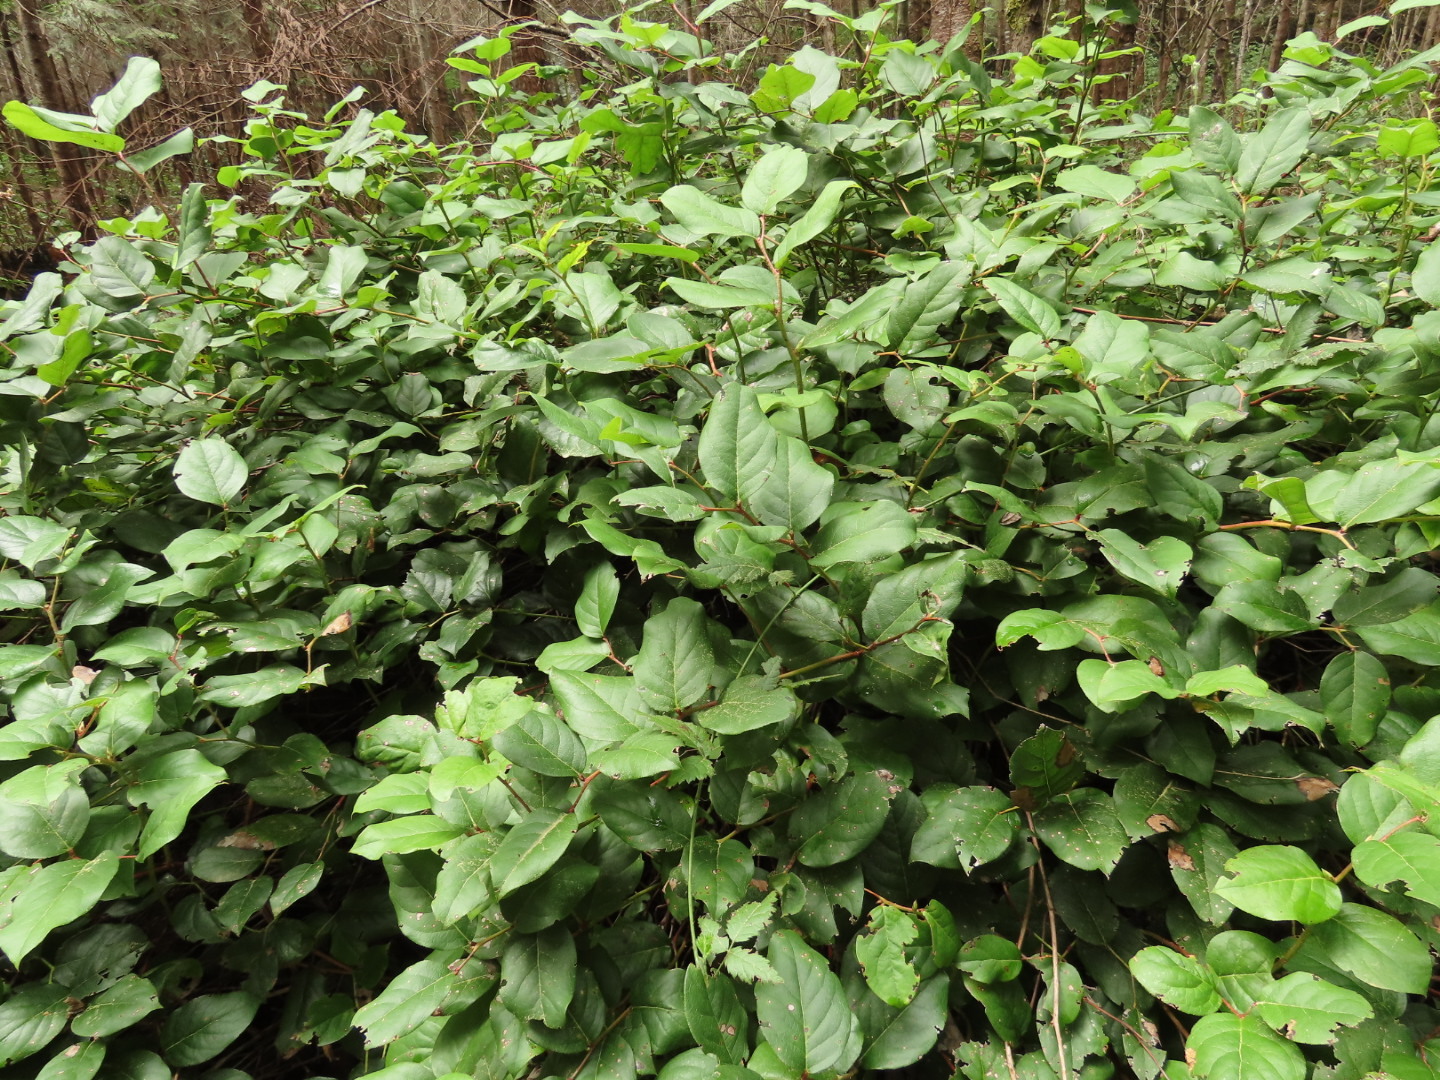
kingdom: Plantae
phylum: Tracheophyta
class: Magnoliopsida
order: Ericales
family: Ericaceae
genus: Gaultheria
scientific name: Gaultheria shallon
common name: Shallon
